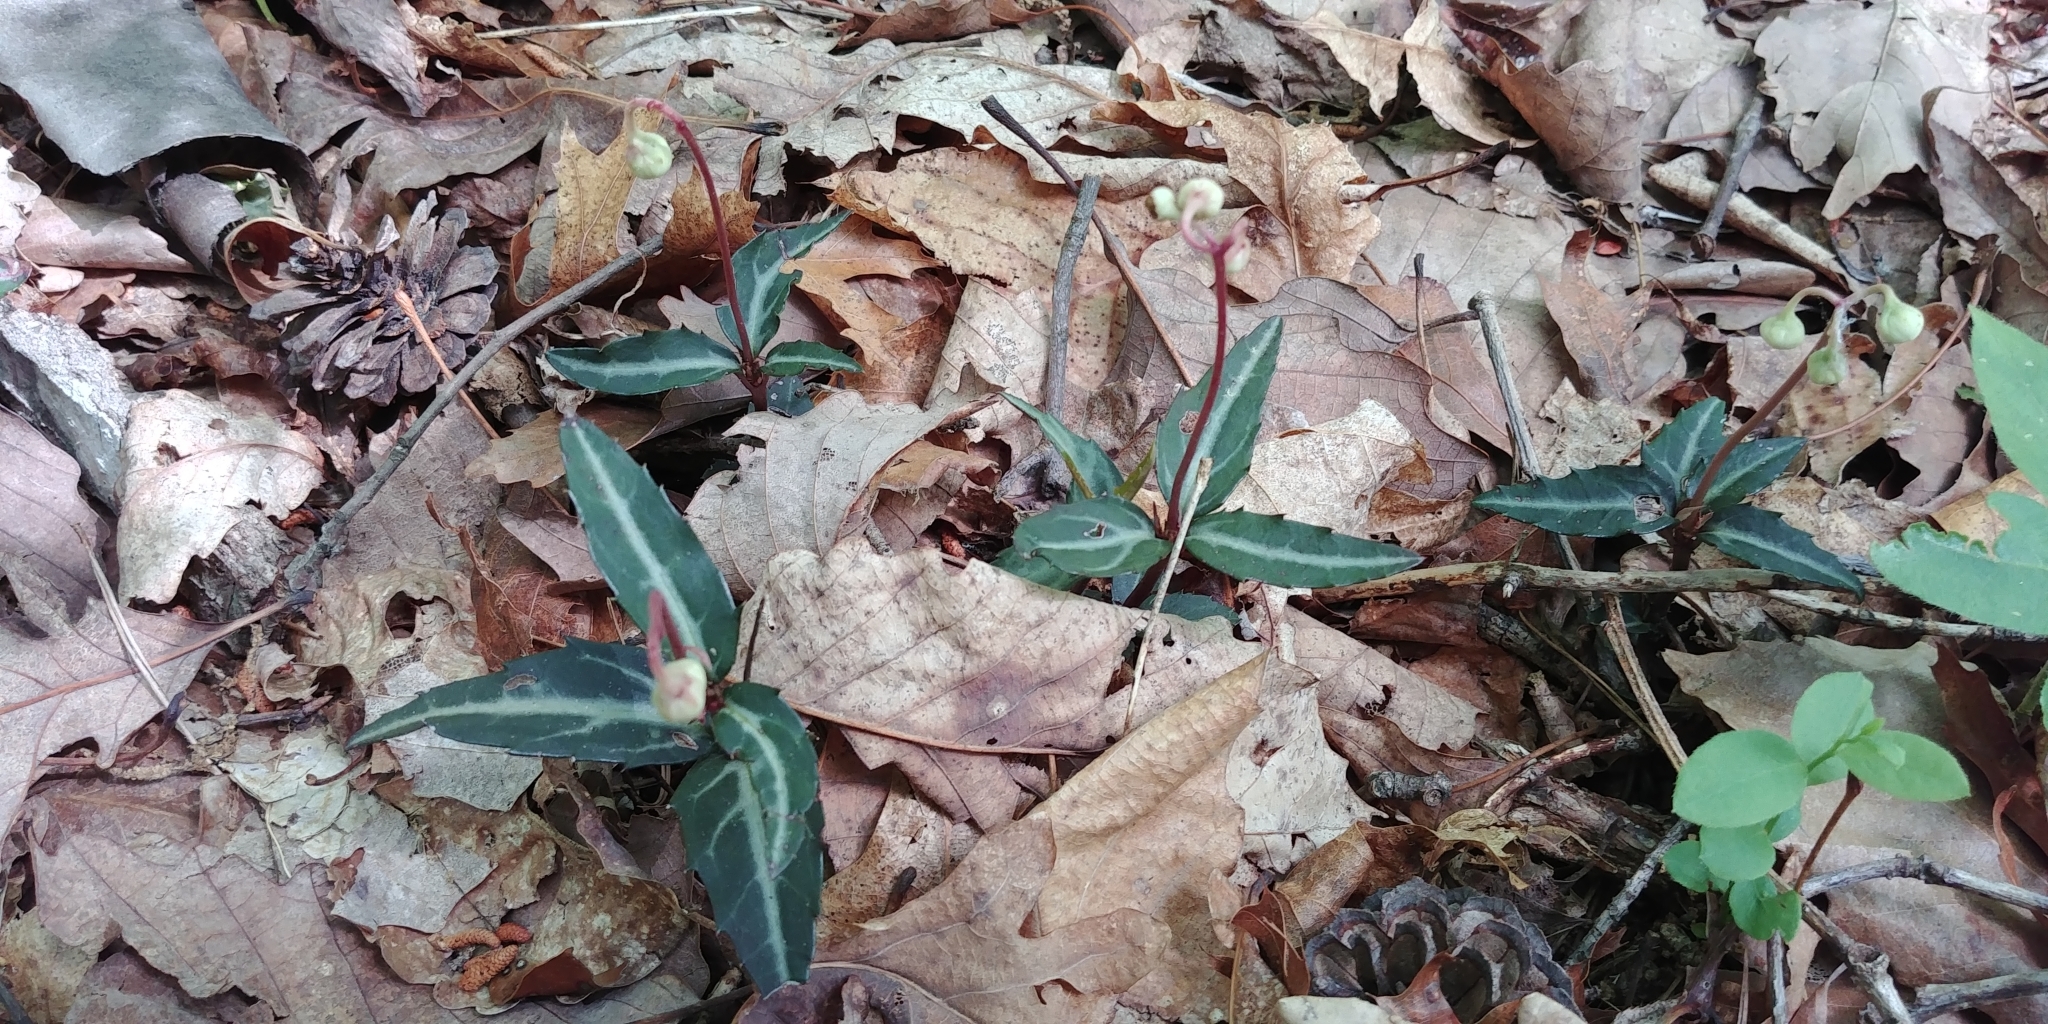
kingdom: Plantae
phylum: Tracheophyta
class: Magnoliopsida
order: Ericales
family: Ericaceae
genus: Chimaphila
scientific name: Chimaphila maculata
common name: Spotted pipsissewa
